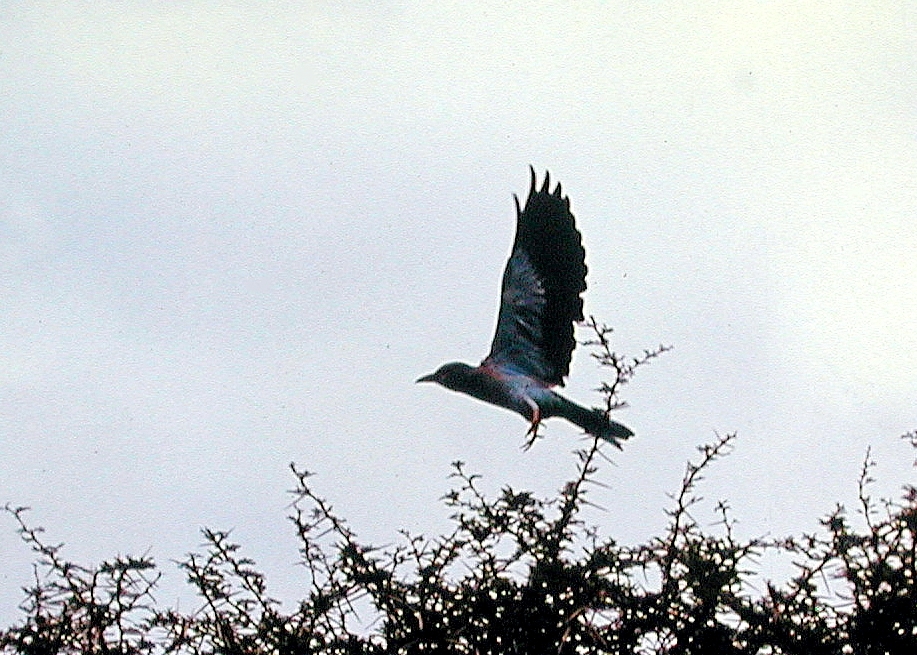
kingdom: Animalia
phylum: Chordata
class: Aves
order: Coraciiformes
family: Coraciidae
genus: Coracias
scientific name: Coracias garrulus
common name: European roller
